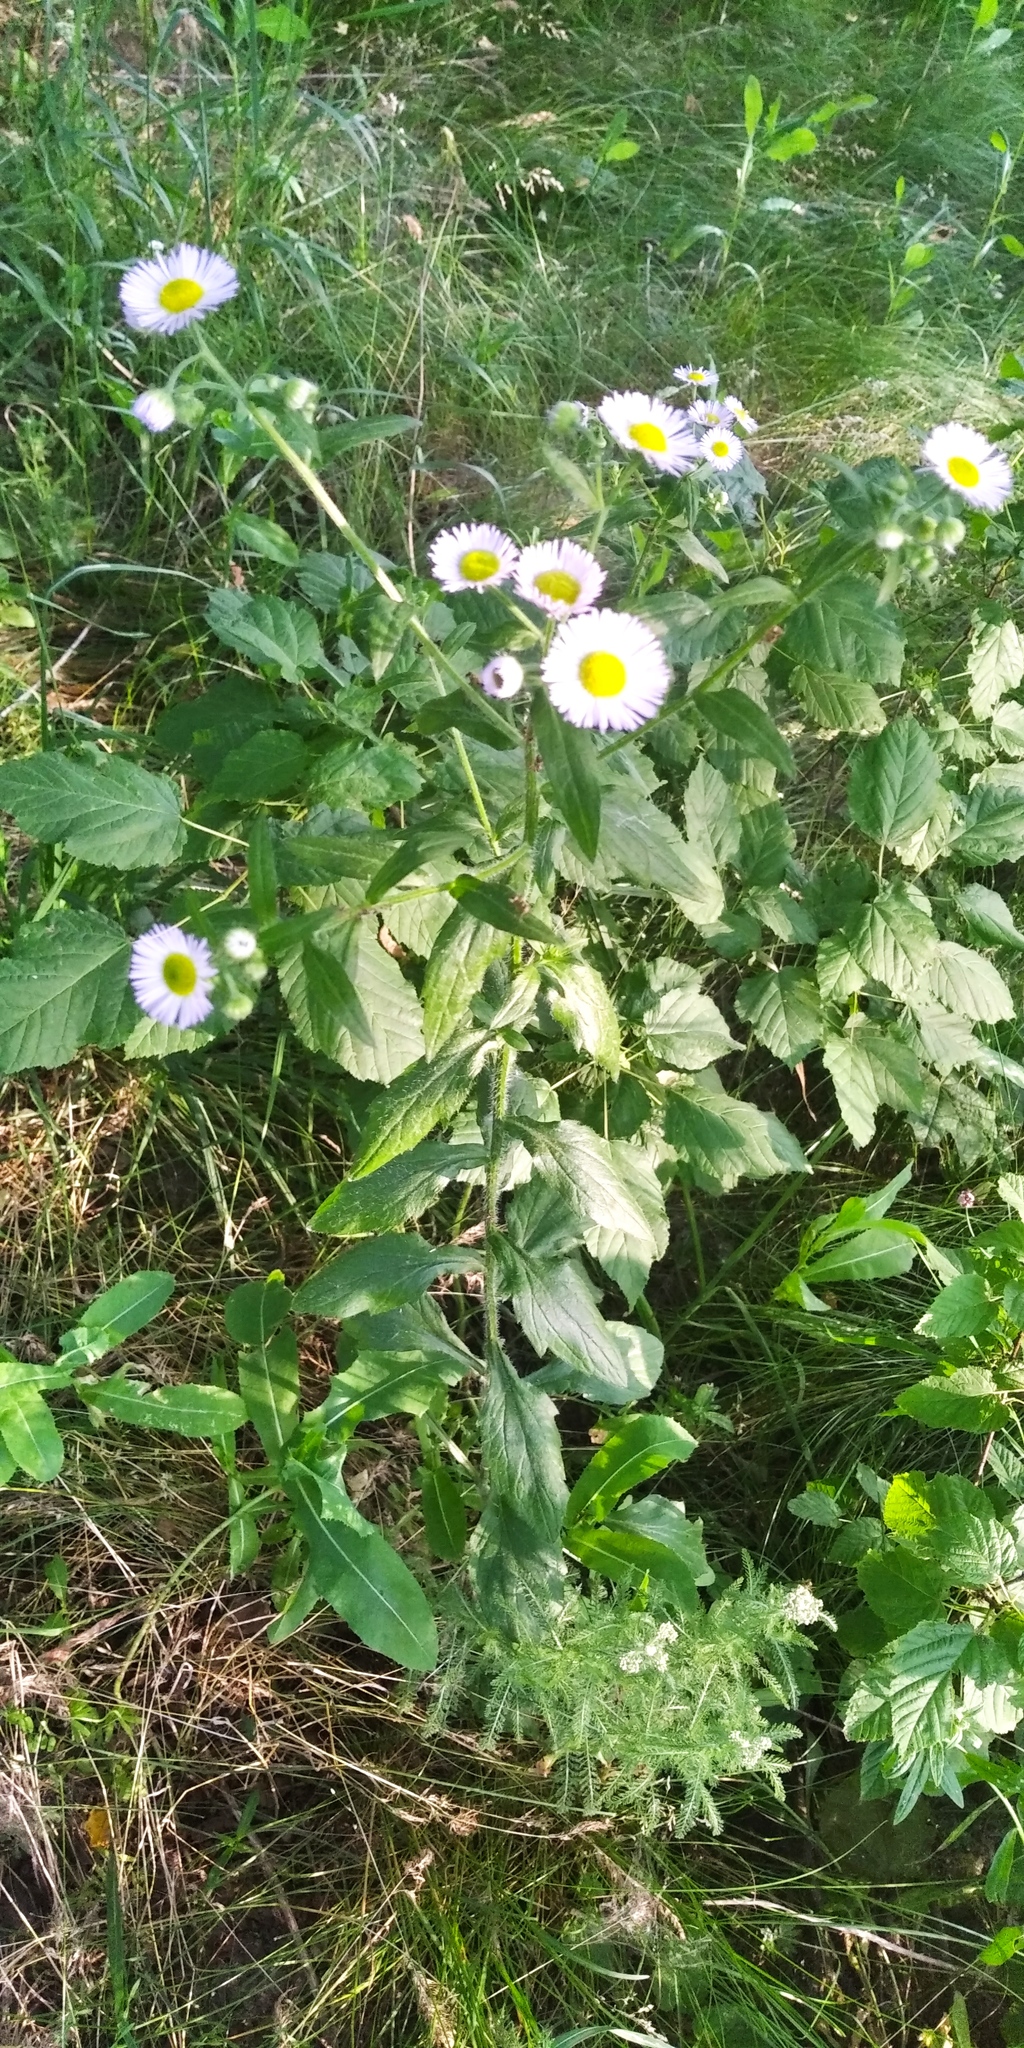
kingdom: Plantae
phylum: Tracheophyta
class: Magnoliopsida
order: Asterales
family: Asteraceae
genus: Erigeron
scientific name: Erigeron annuus
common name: Tall fleabane
